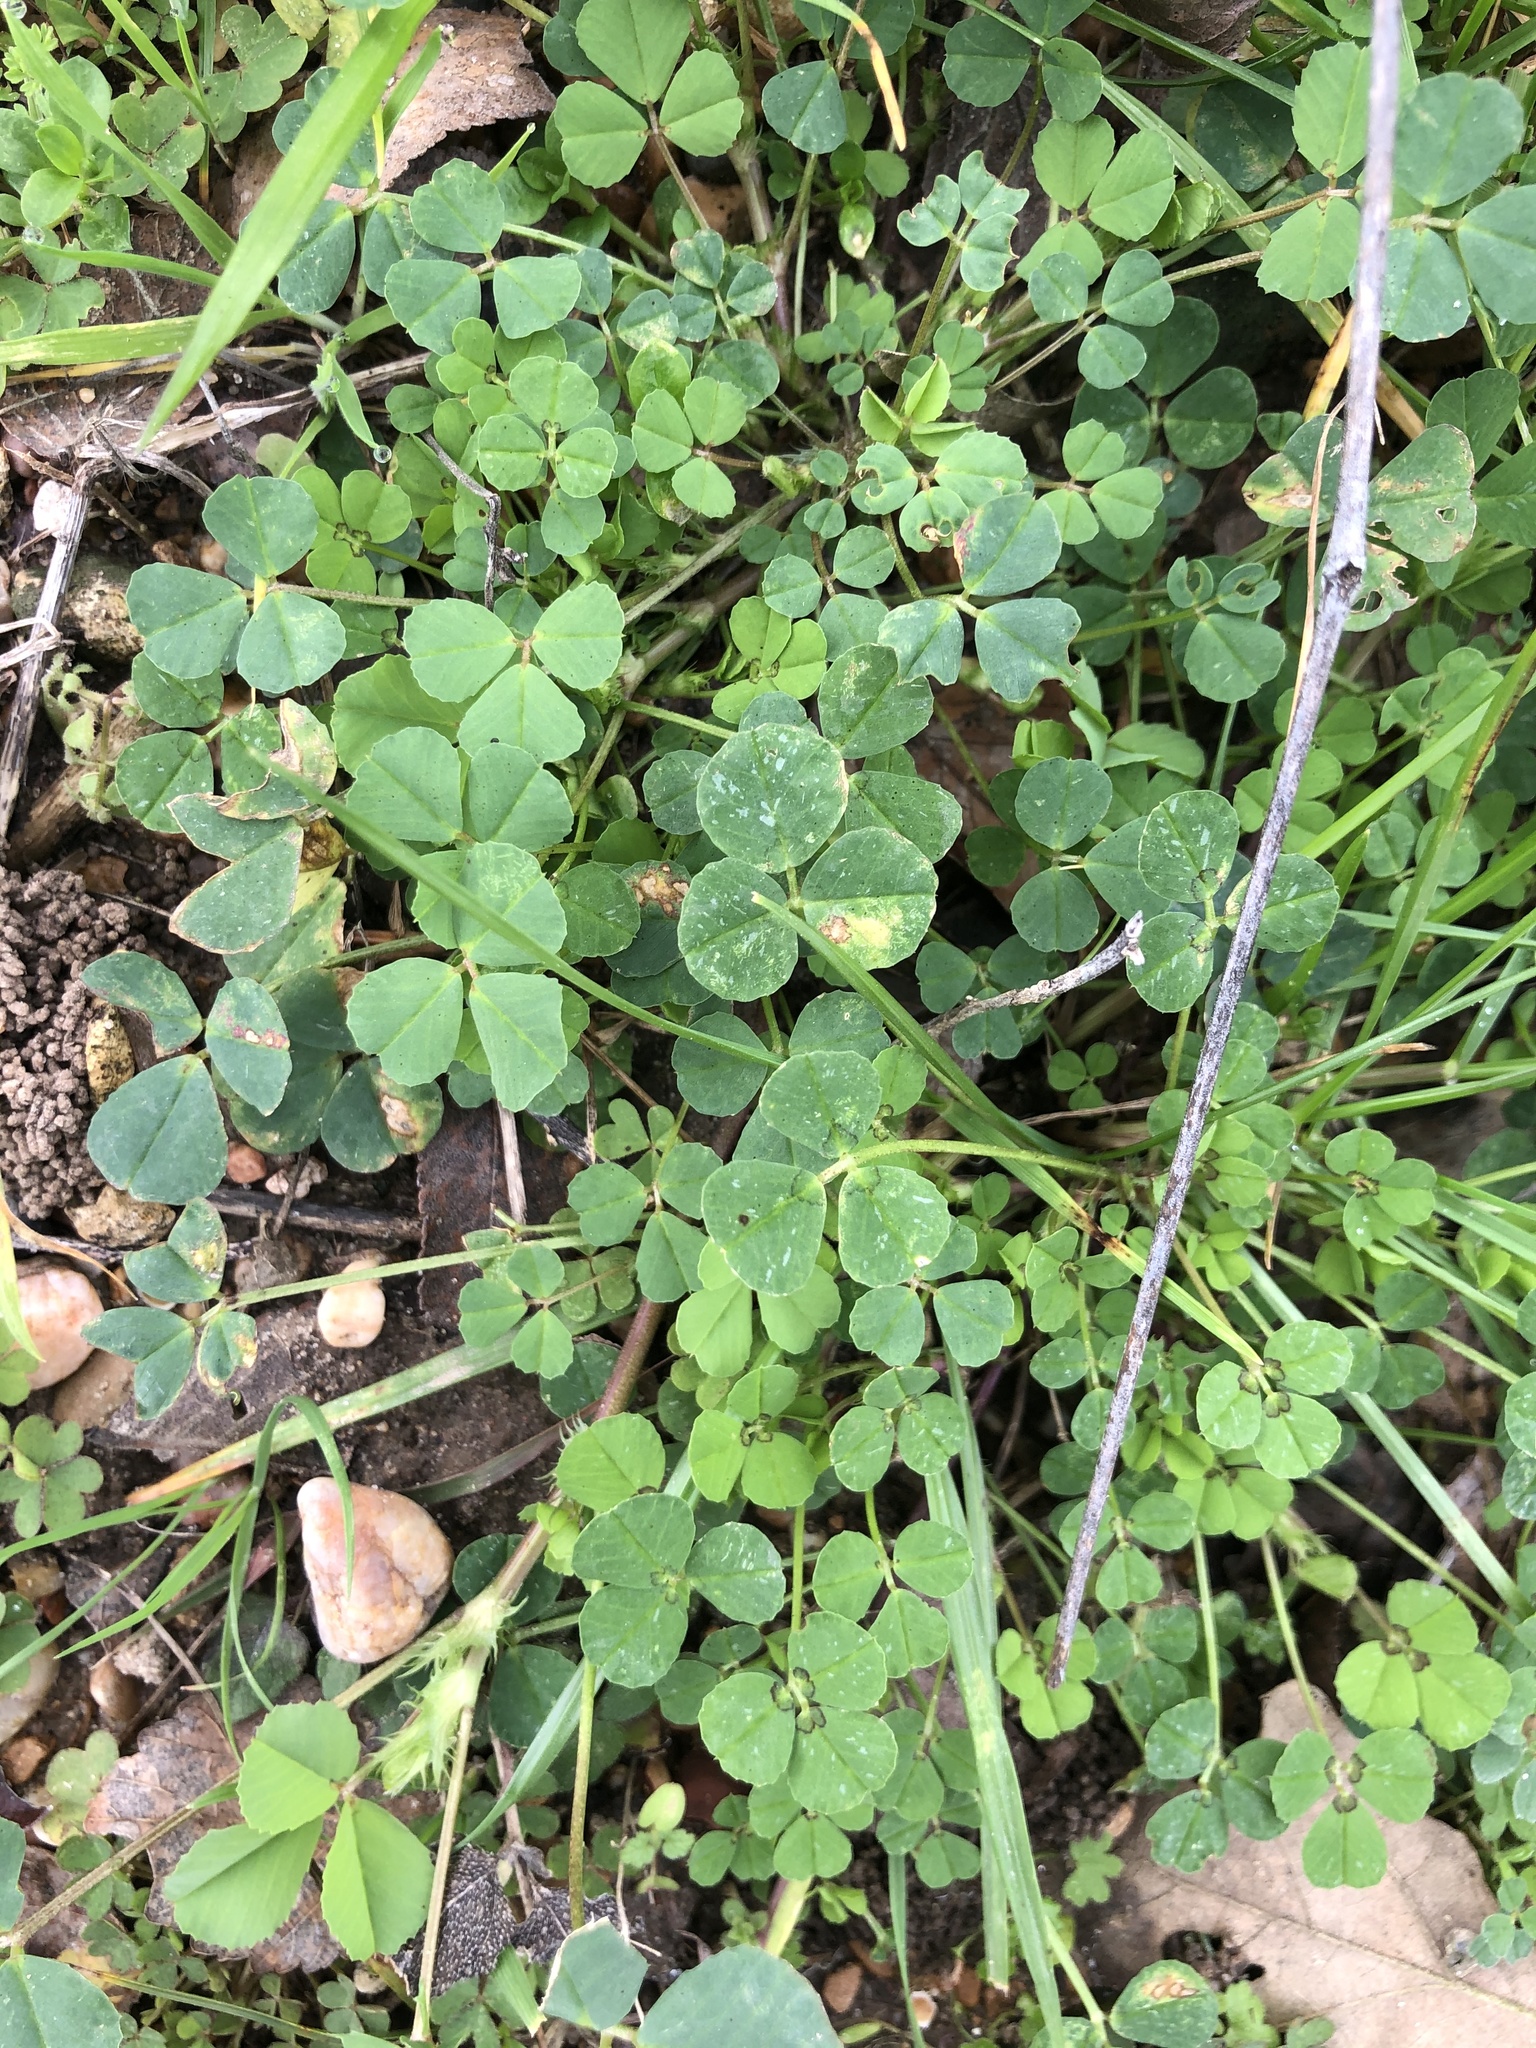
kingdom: Plantae
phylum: Tracheophyta
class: Magnoliopsida
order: Fabales
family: Fabaceae
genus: Medicago
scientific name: Medicago polymorpha
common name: Burclover
